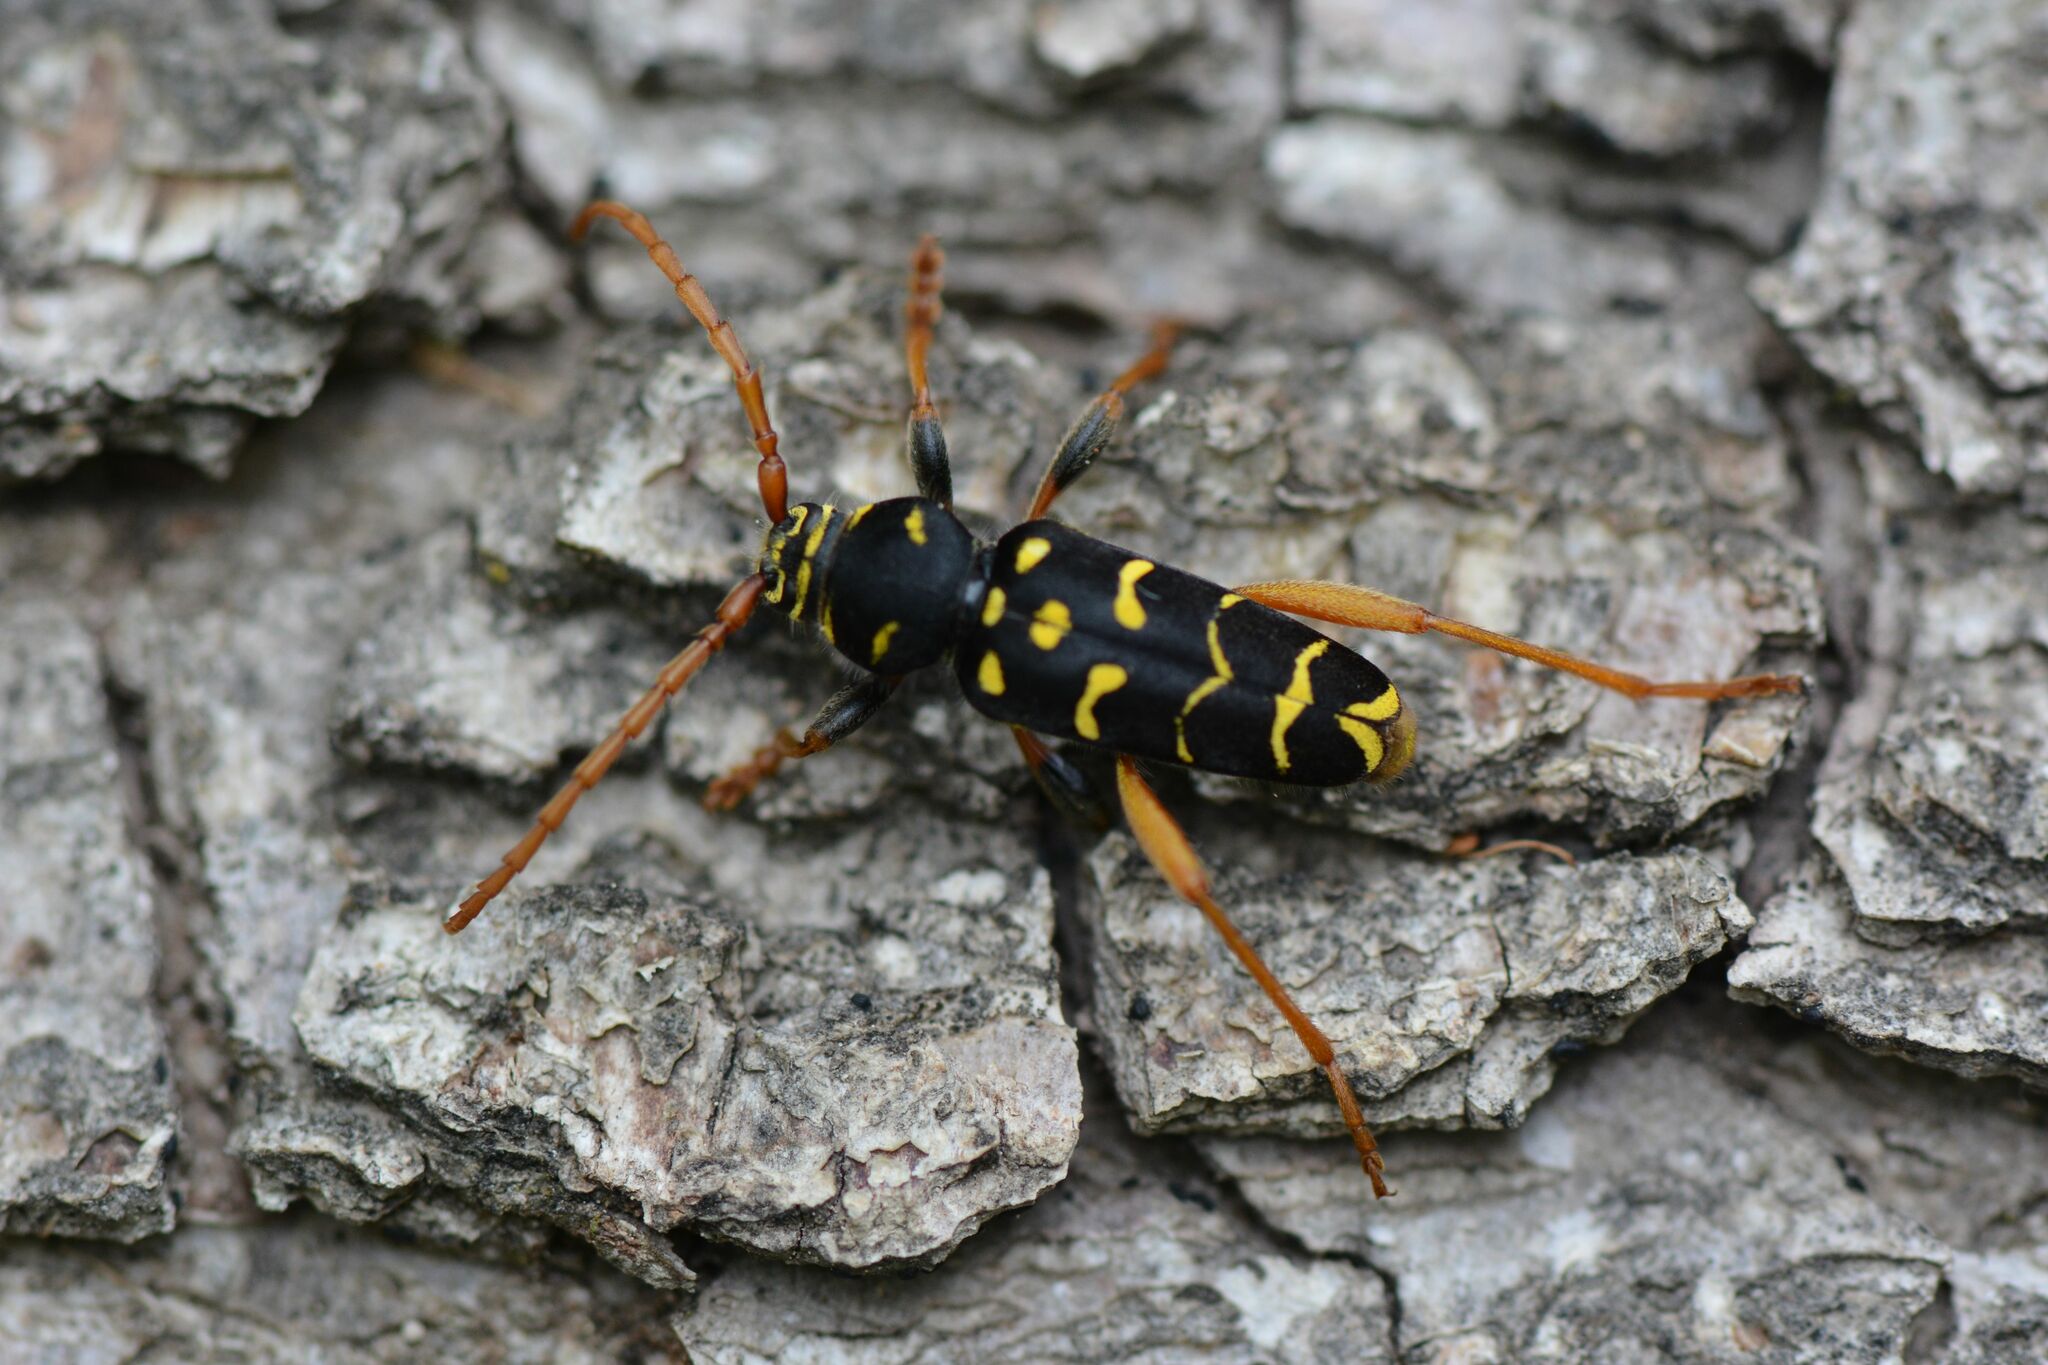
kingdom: Animalia
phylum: Arthropoda
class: Insecta
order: Coleoptera
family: Cerambycidae
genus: Plagionotus
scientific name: Plagionotus arcuatus
